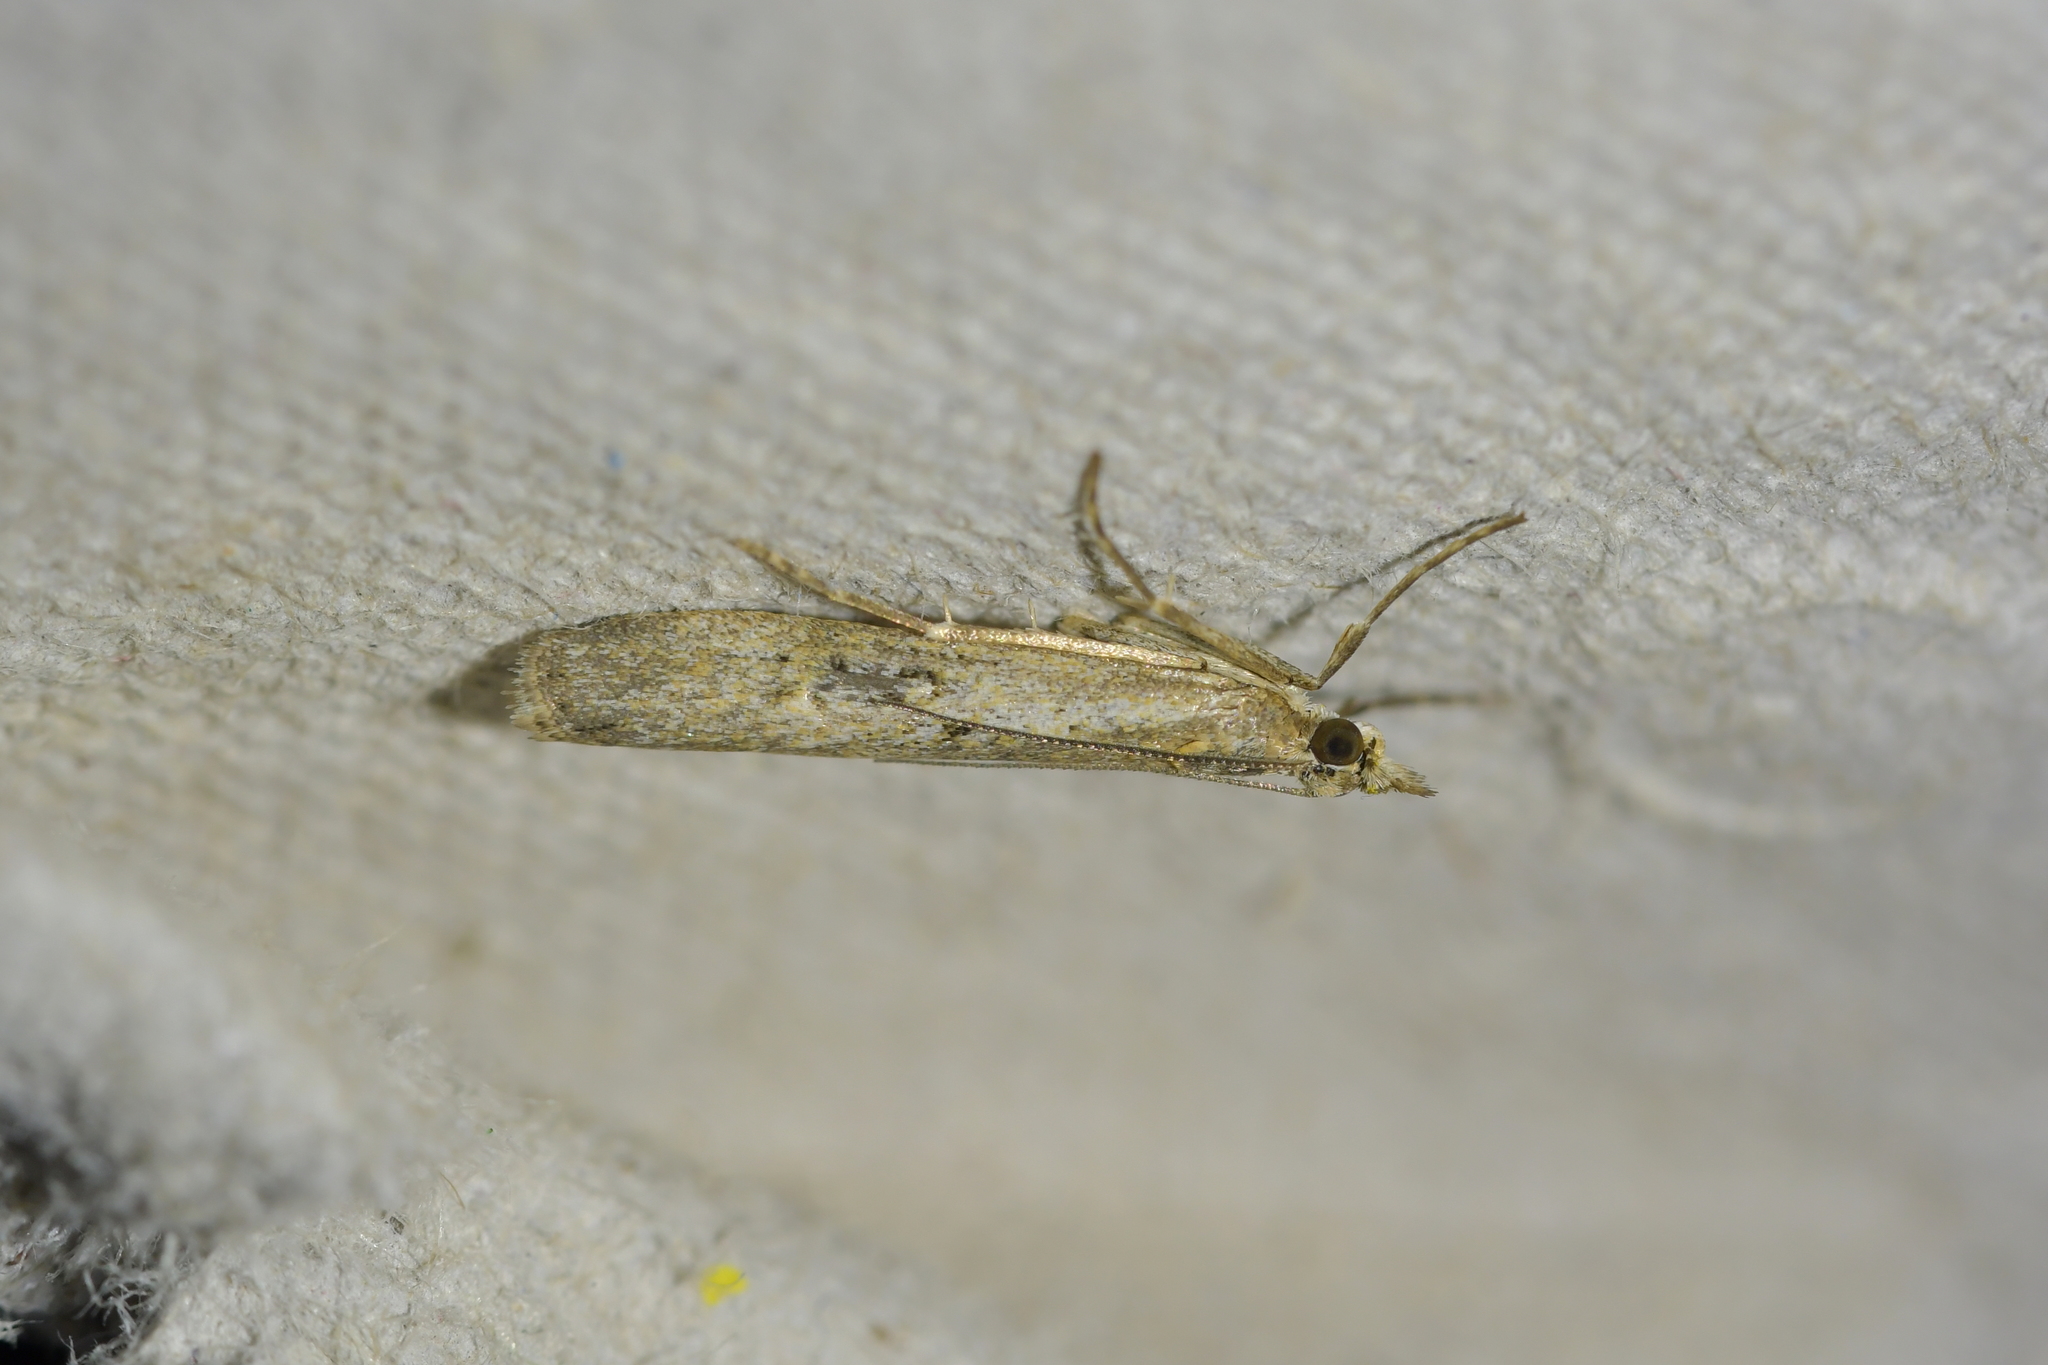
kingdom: Animalia
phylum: Arthropoda
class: Insecta
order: Lepidoptera
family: Crambidae
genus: Eudonia
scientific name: Eudonia leptalea
